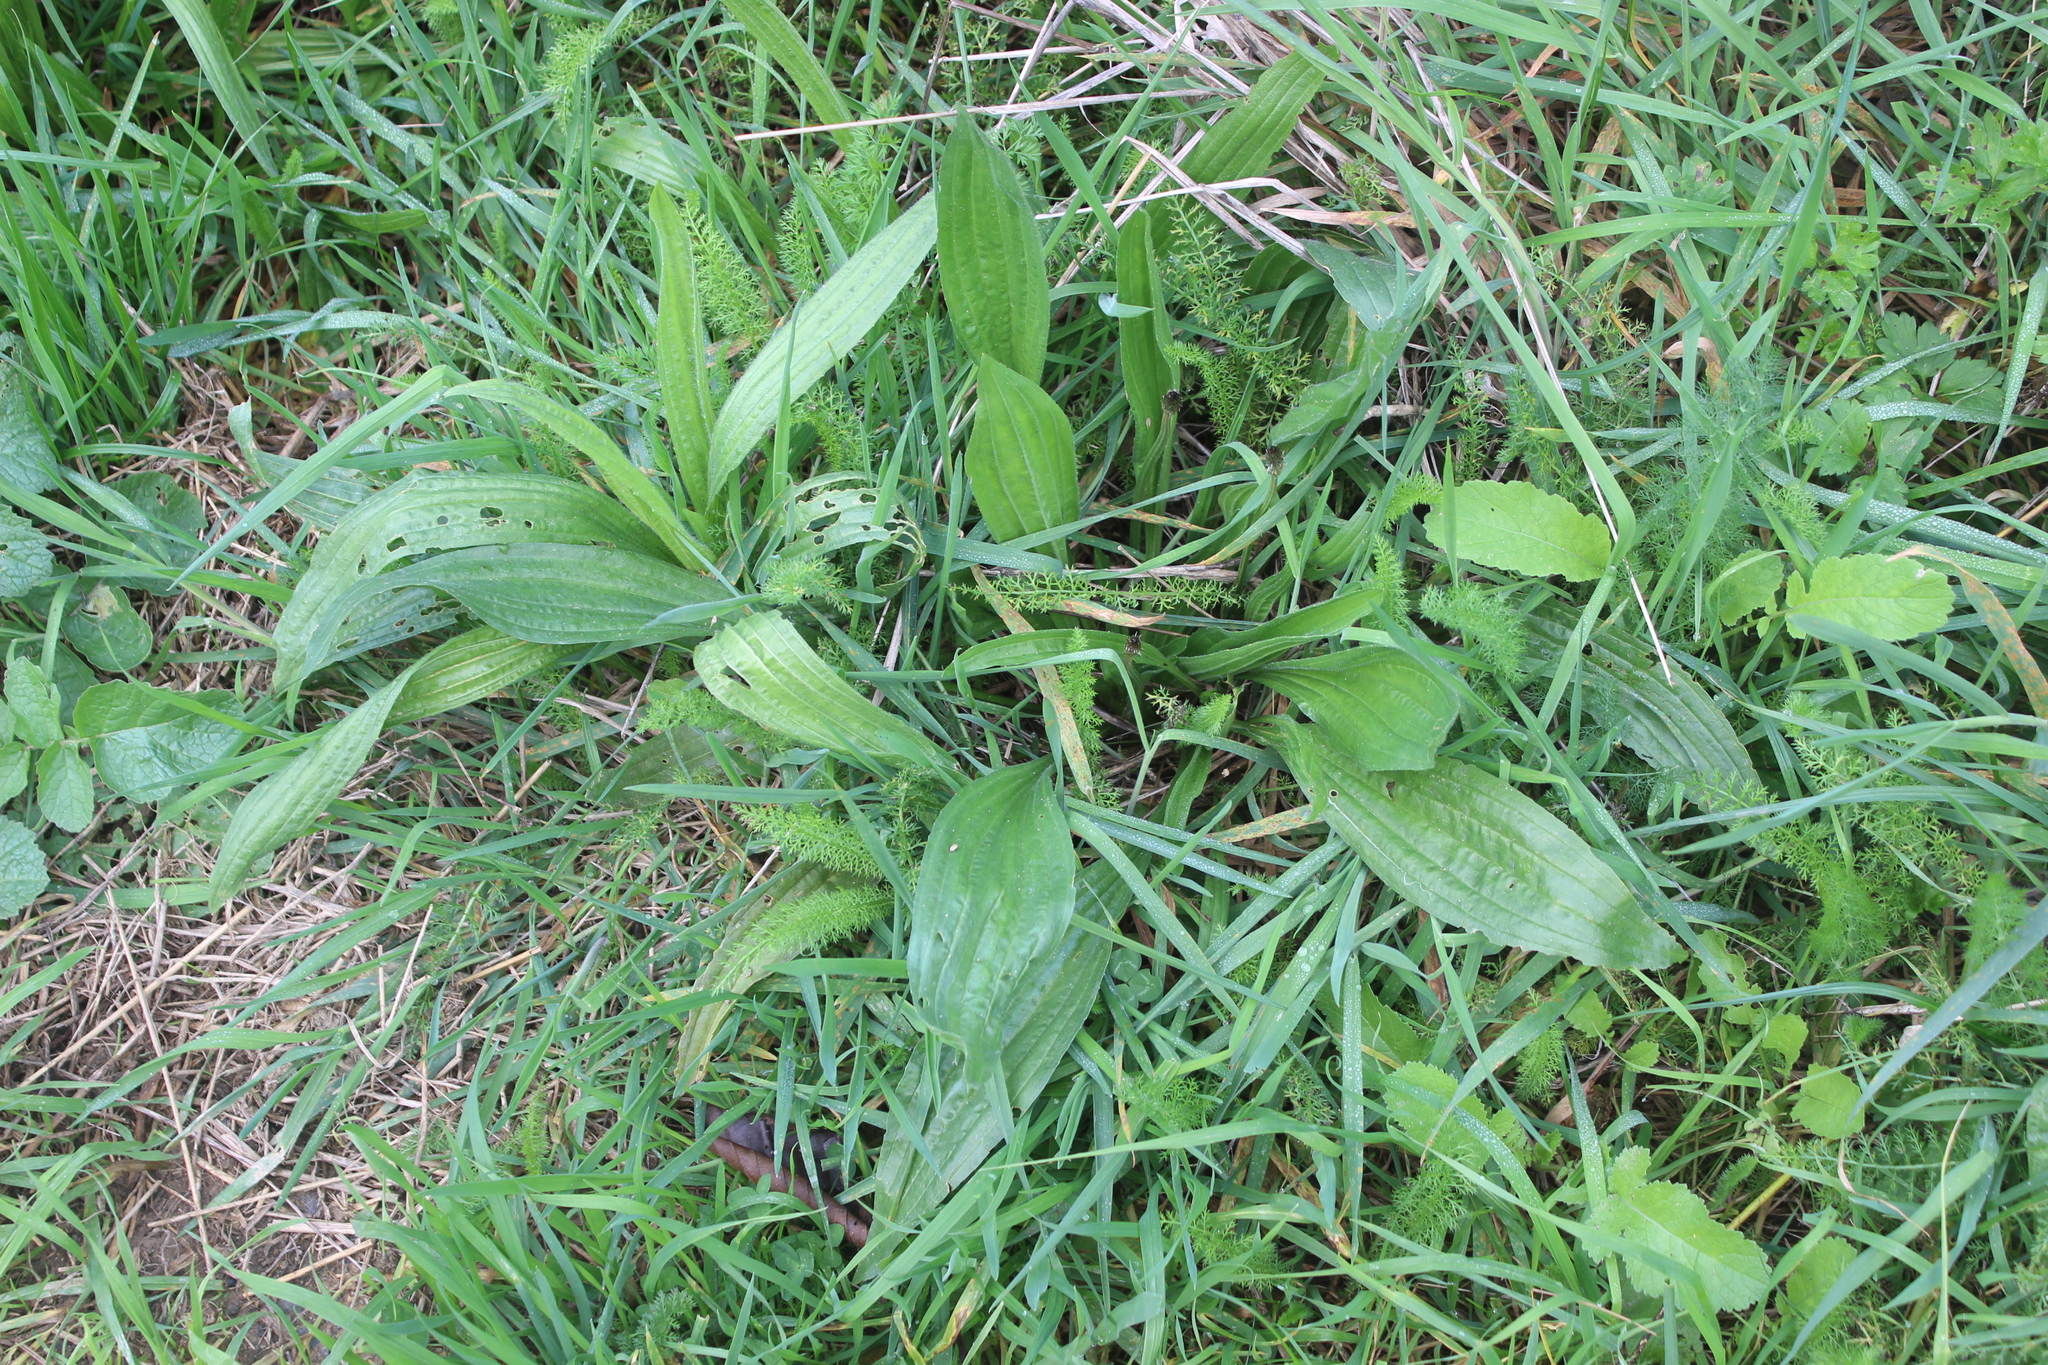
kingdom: Plantae
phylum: Tracheophyta
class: Magnoliopsida
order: Lamiales
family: Plantaginaceae
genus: Plantago
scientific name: Plantago lanceolata
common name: Ribwort plantain
